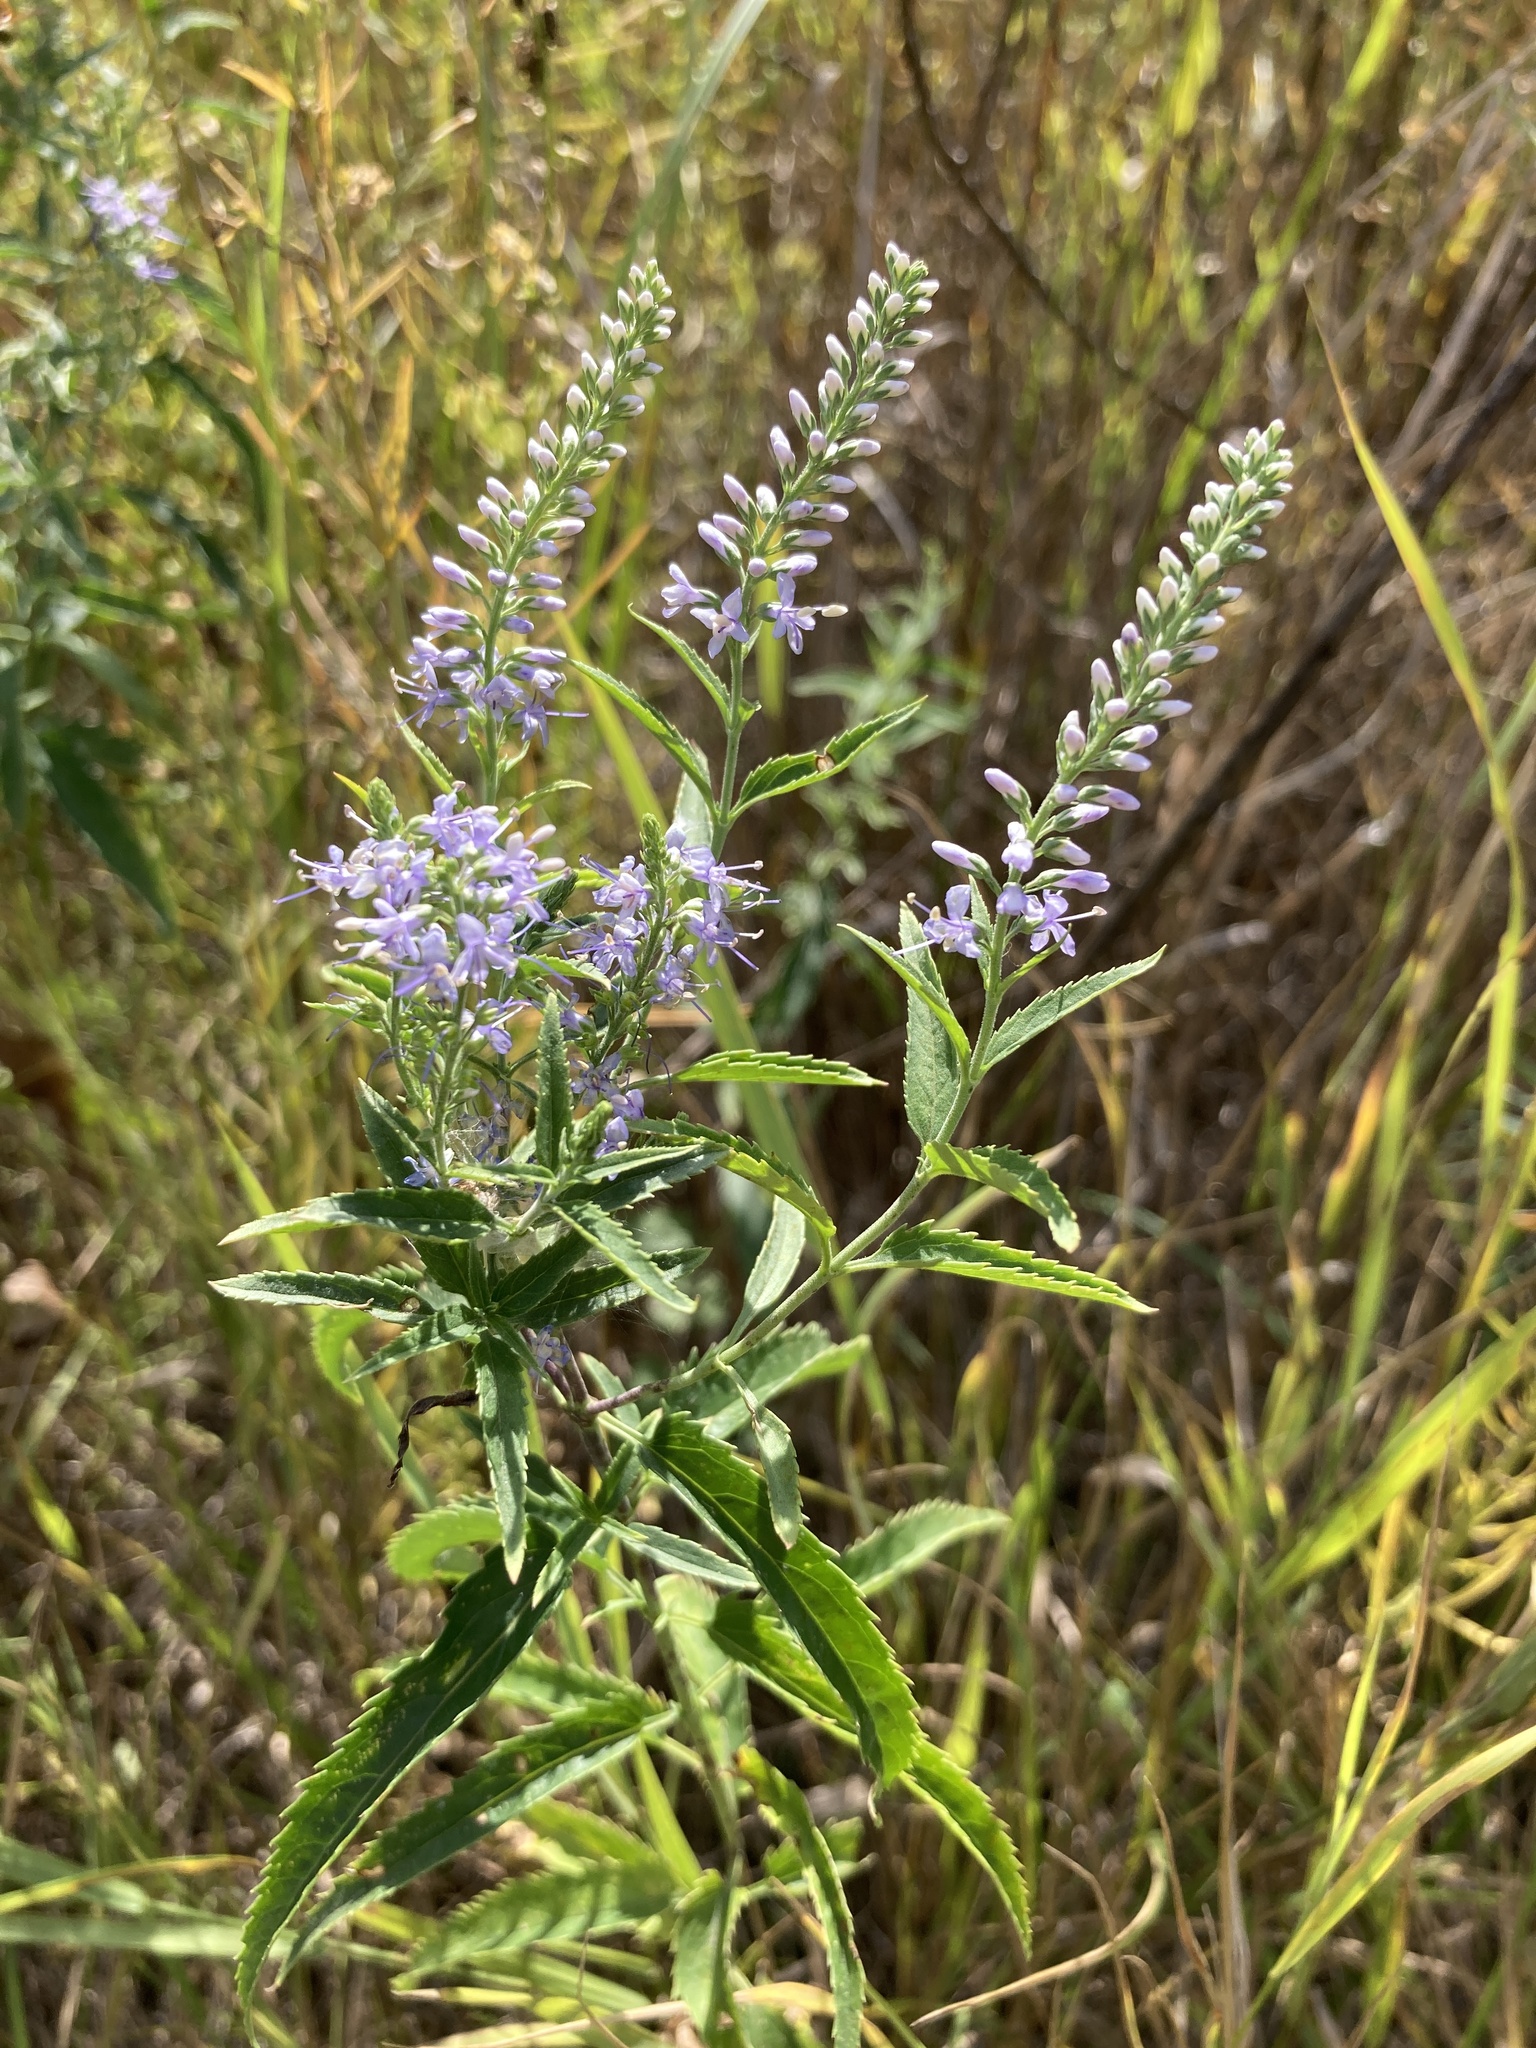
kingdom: Plantae
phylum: Tracheophyta
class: Magnoliopsida
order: Lamiales
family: Plantaginaceae
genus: Veronica
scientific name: Veronica longifolia
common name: Garden speedwell
